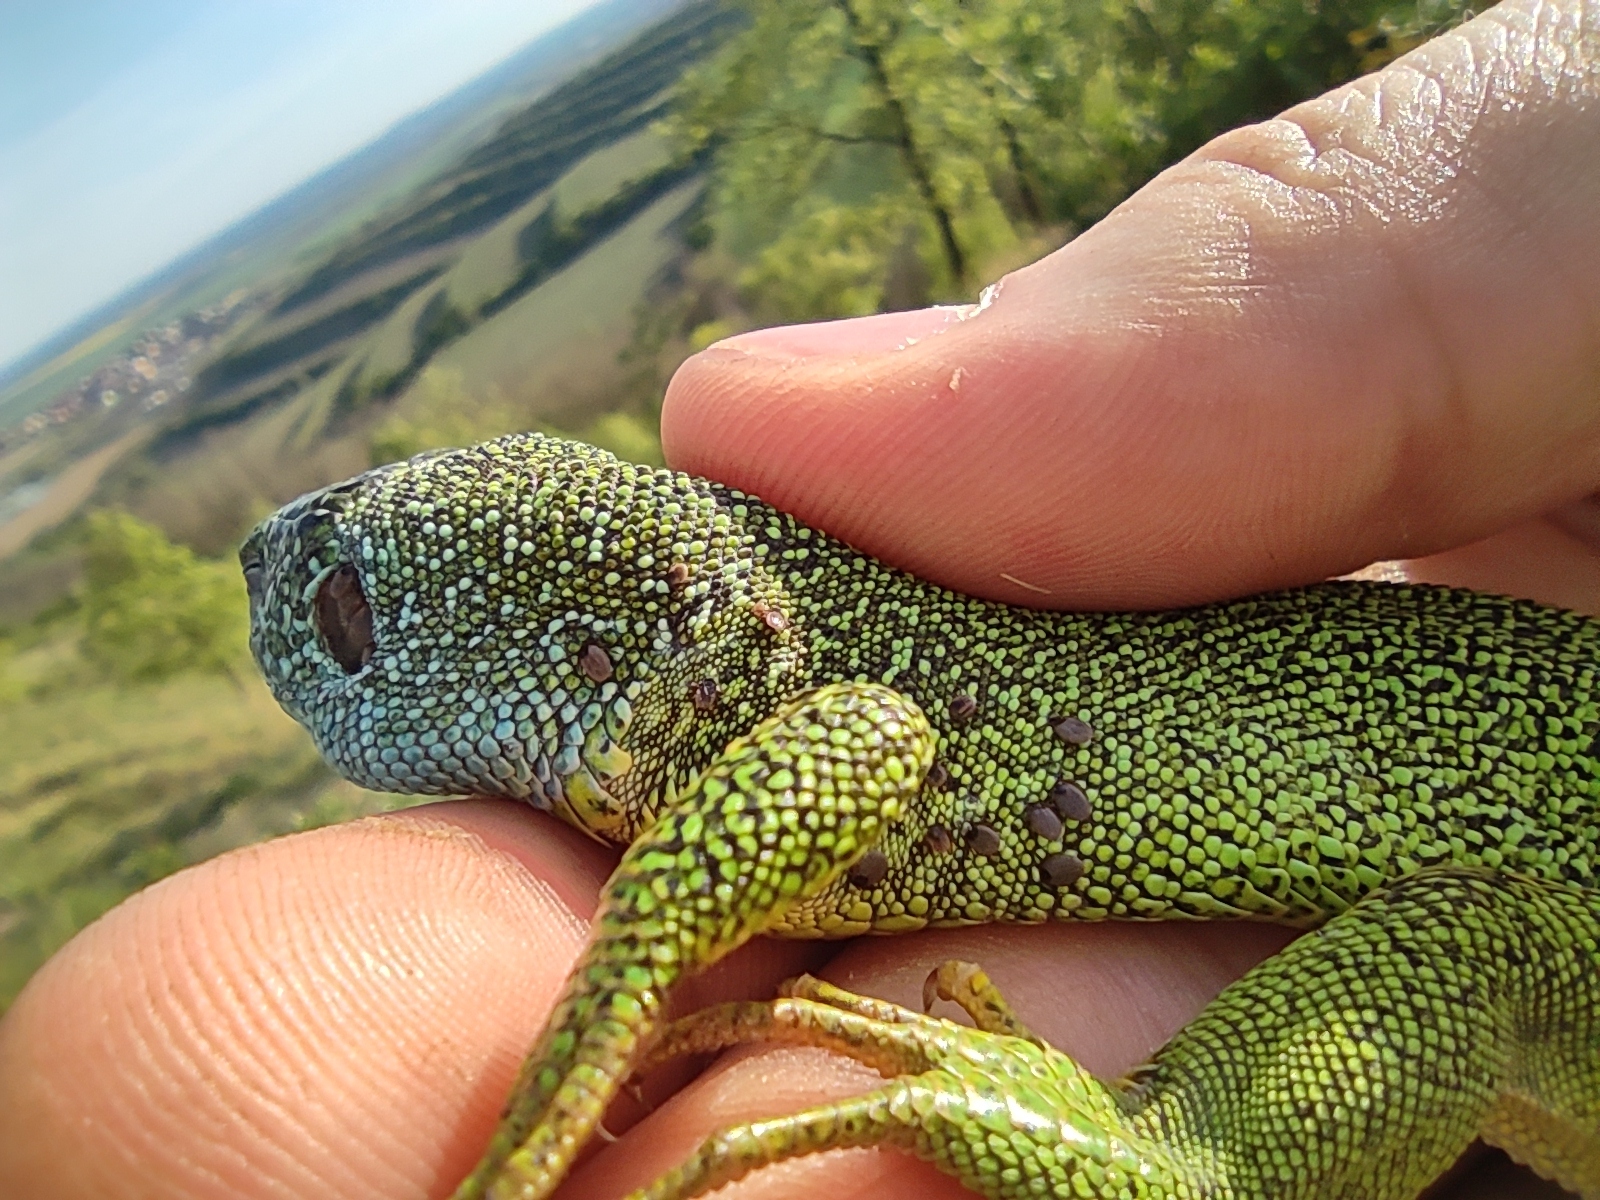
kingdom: Animalia
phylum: Arthropoda
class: Arachnida
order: Ixodida
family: Ixodidae
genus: Ixodes
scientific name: Ixodes ricinus
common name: Castor bean tick
